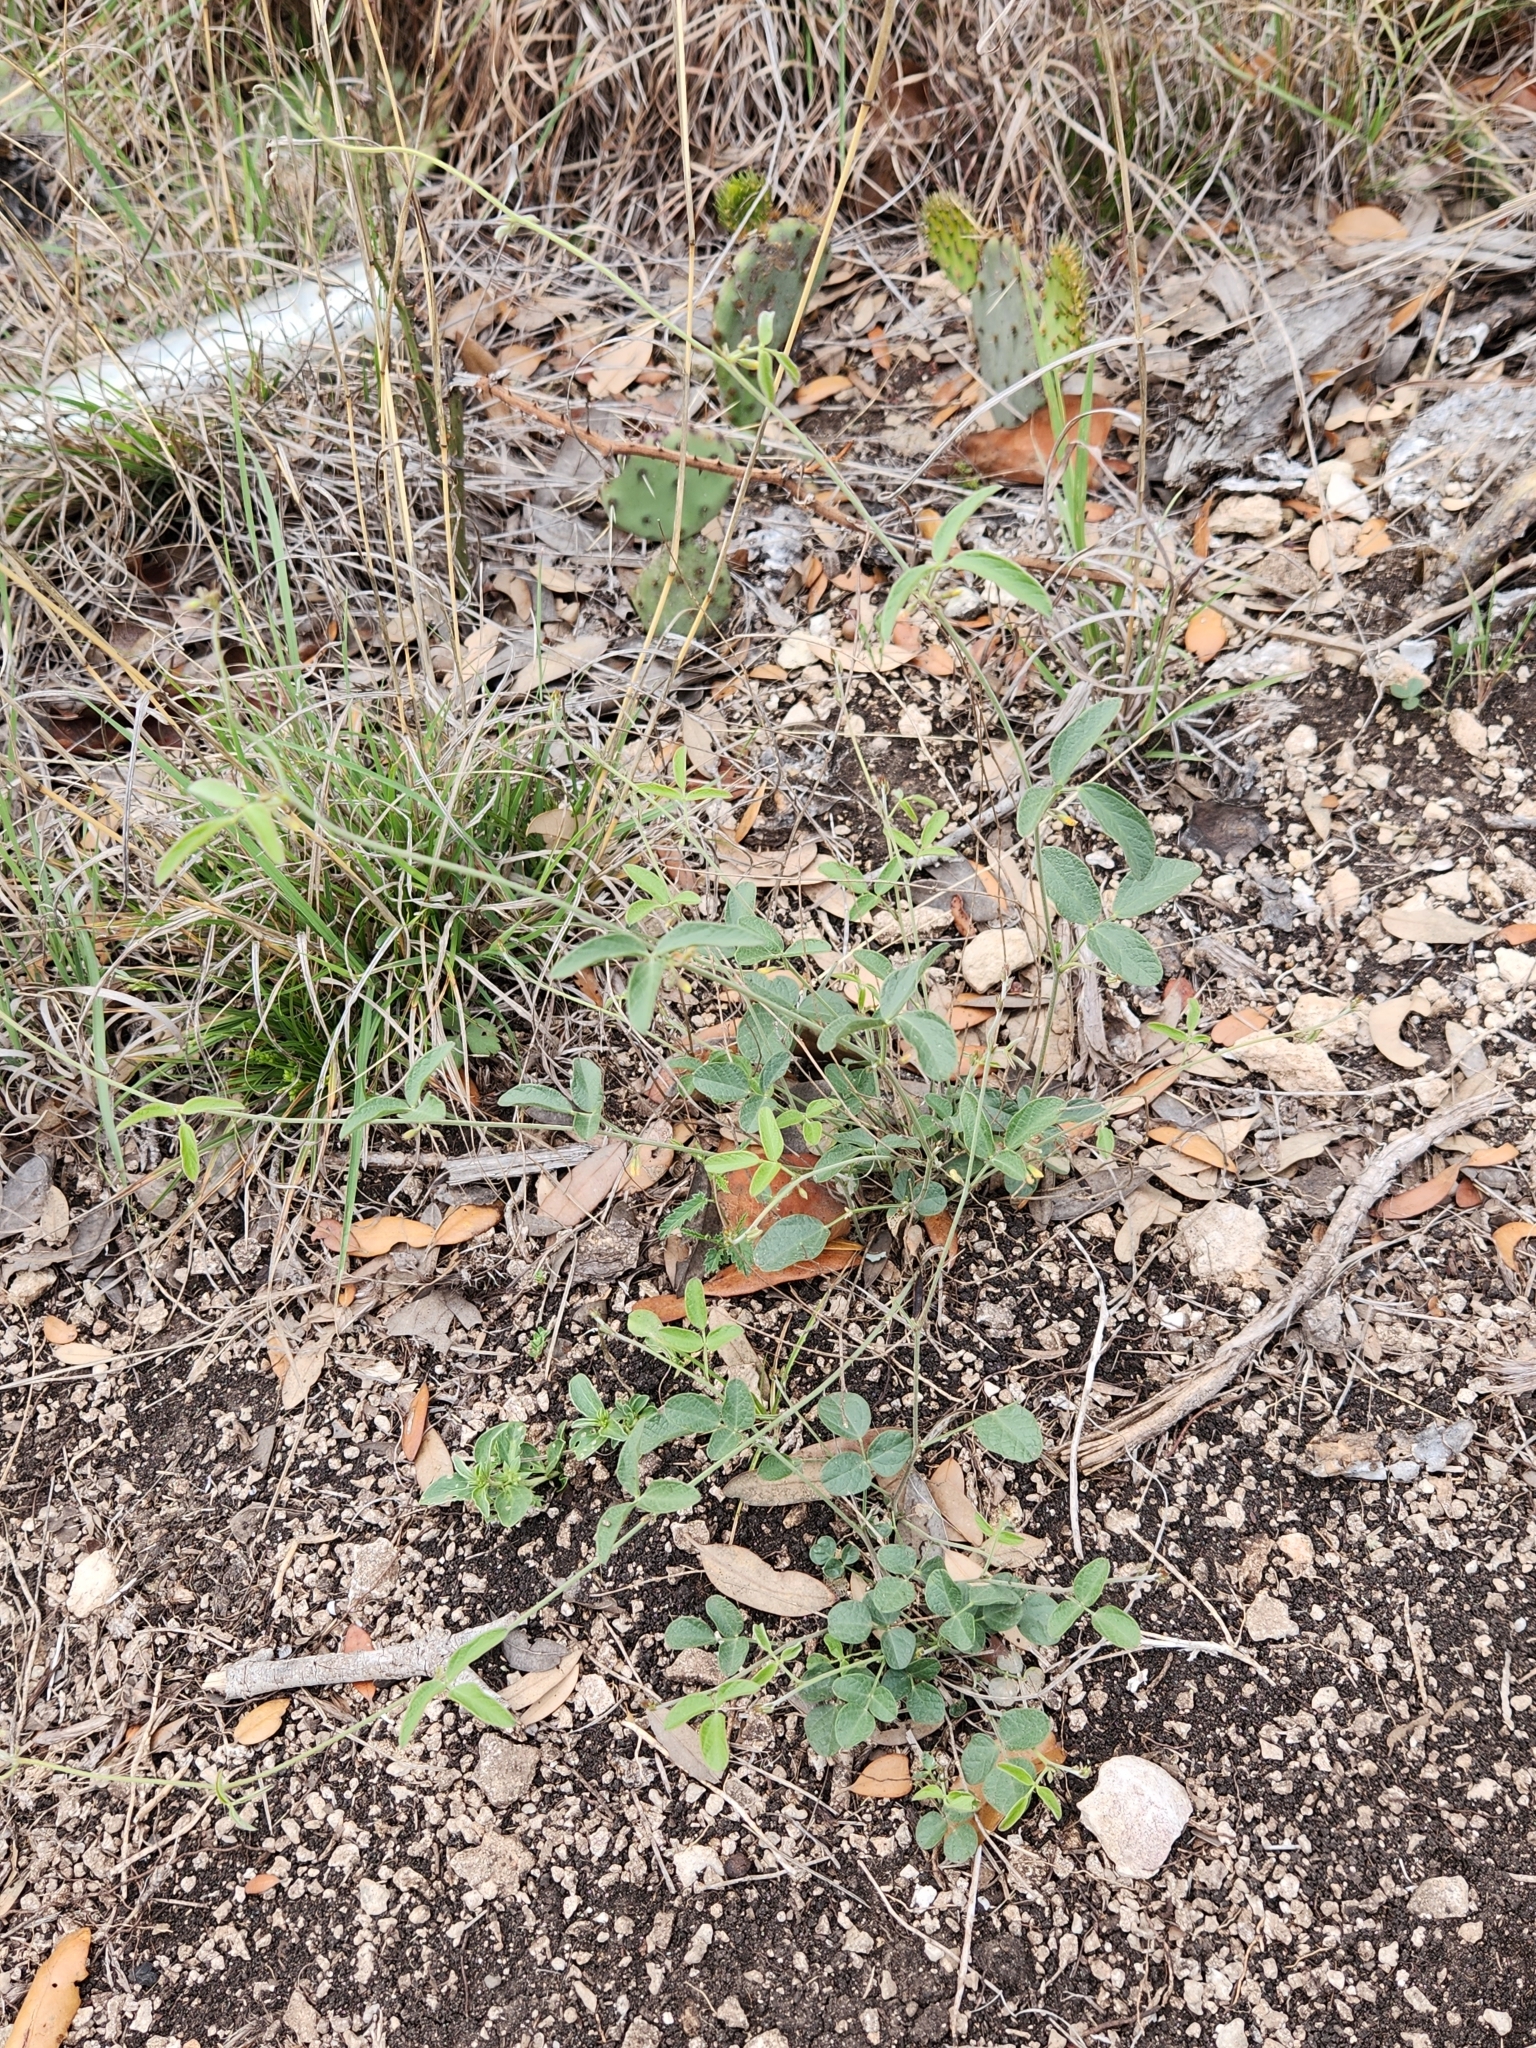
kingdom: Plantae
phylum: Tracheophyta
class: Magnoliopsida
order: Fabales
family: Fabaceae
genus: Rhynchosia
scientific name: Rhynchosia senna
